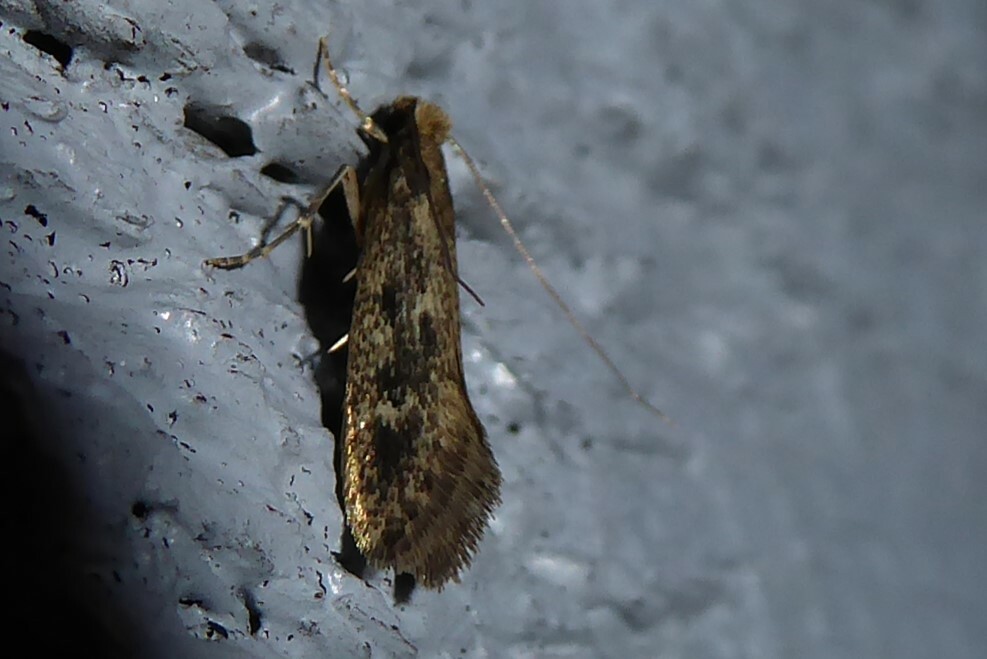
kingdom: Animalia
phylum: Arthropoda
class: Insecta
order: Lepidoptera
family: Tineidae
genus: Tinea
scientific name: Tinea pallescentella
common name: Large pale clothes moth
